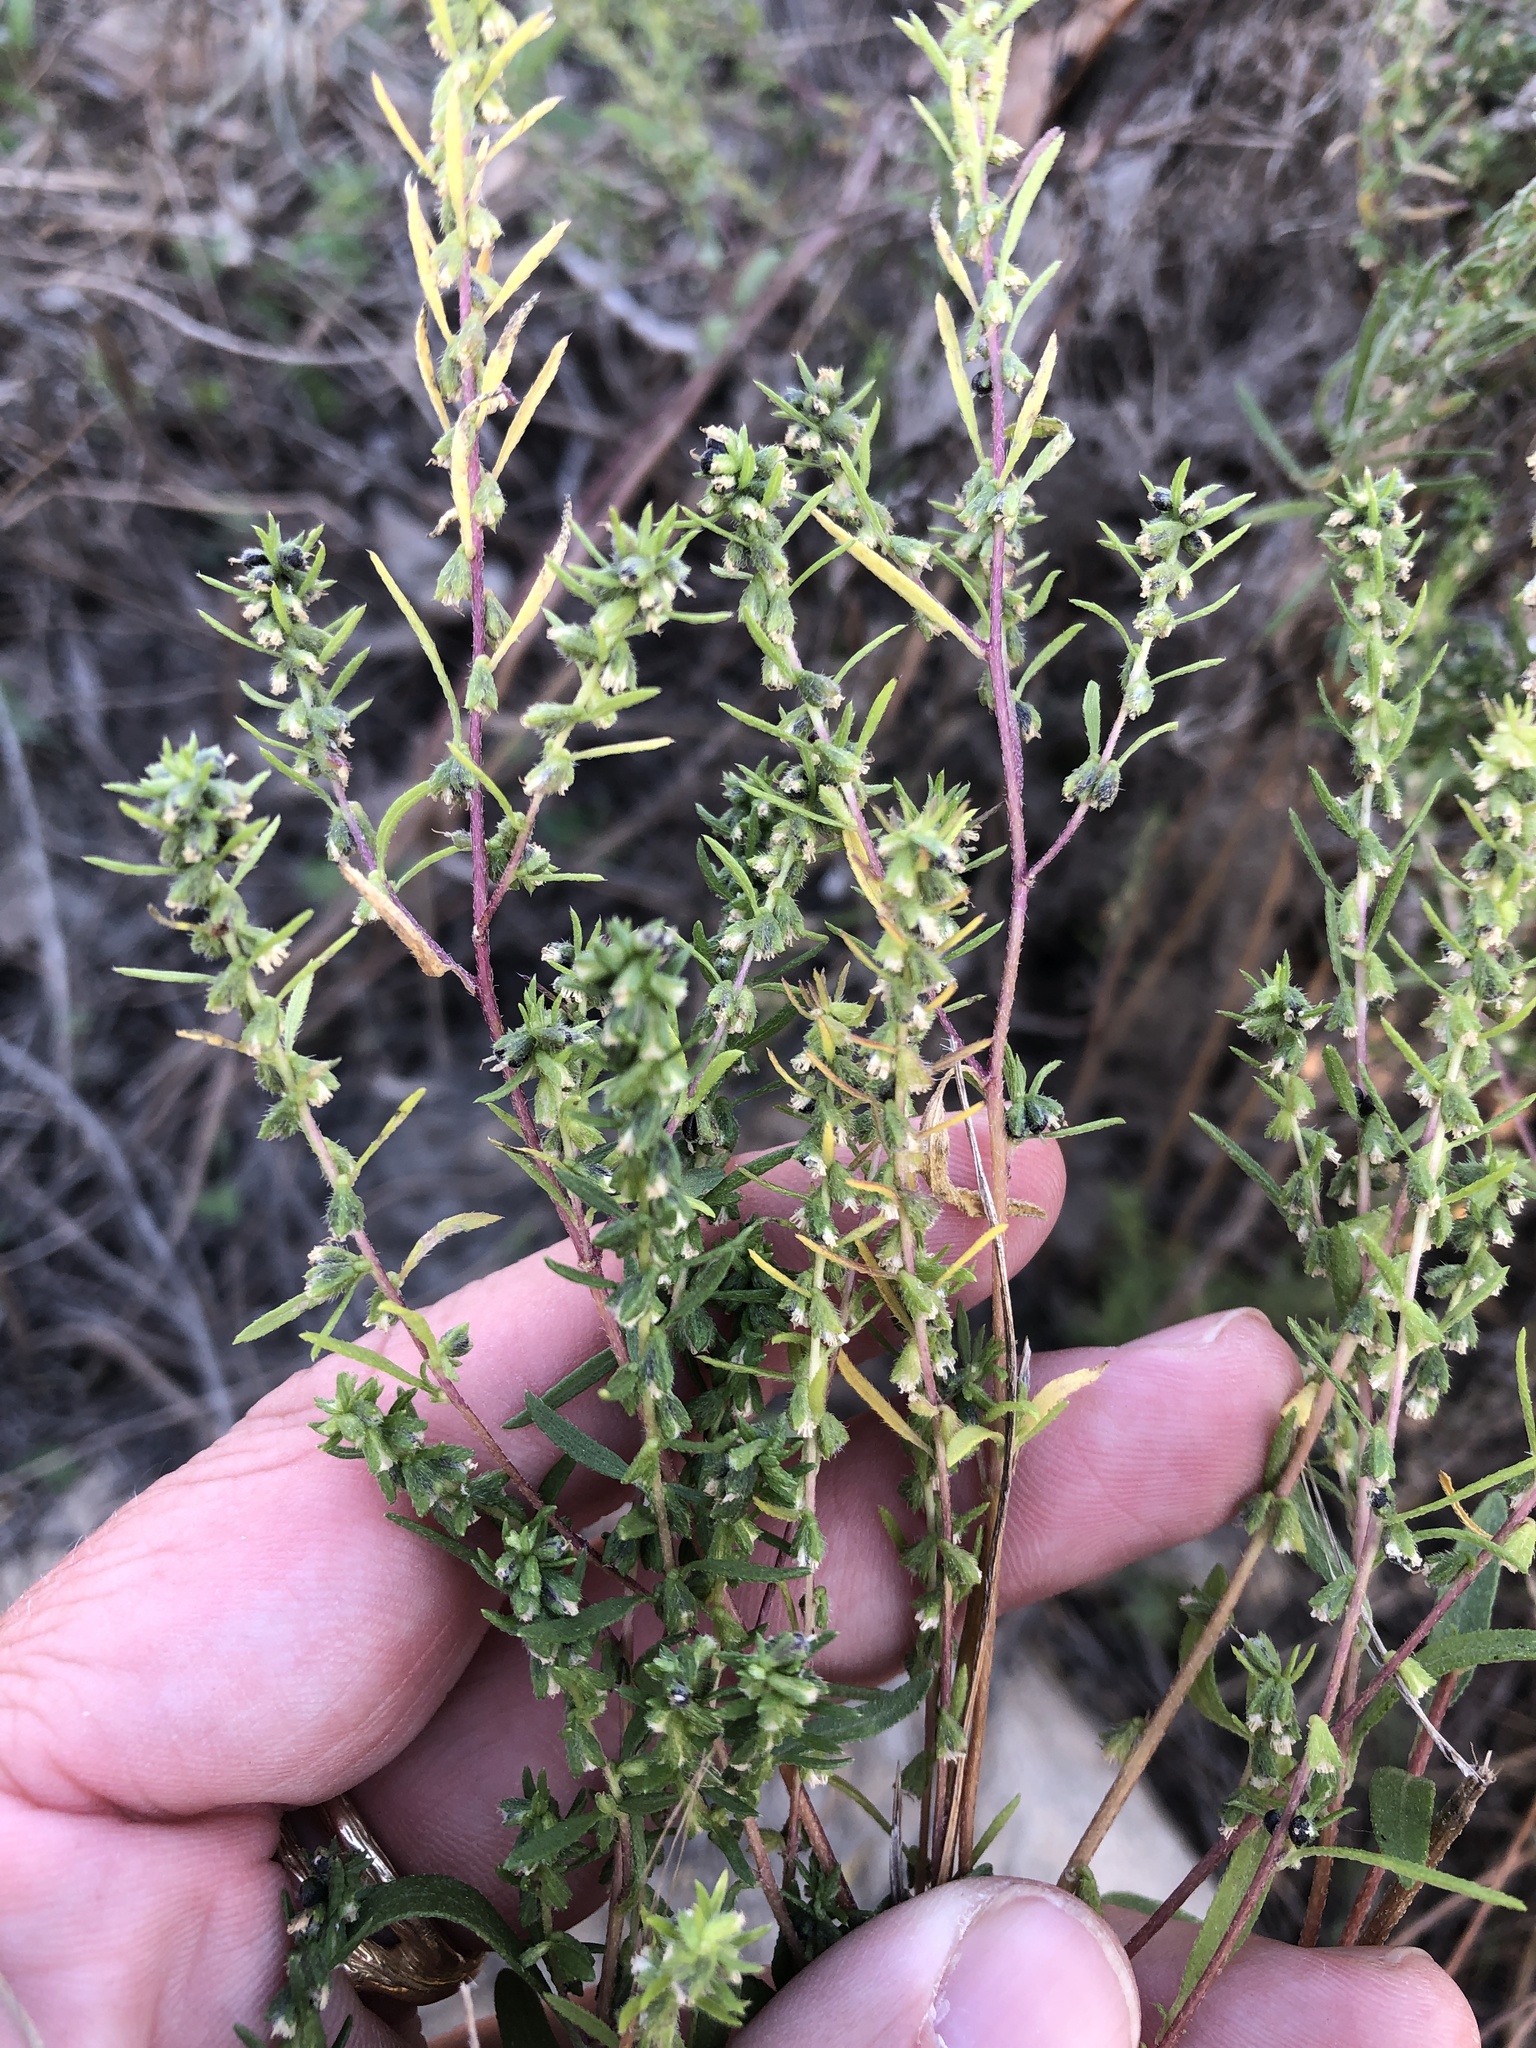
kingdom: Plantae
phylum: Tracheophyta
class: Magnoliopsida
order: Asterales
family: Asteraceae
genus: Iva
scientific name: Iva asperifolia
